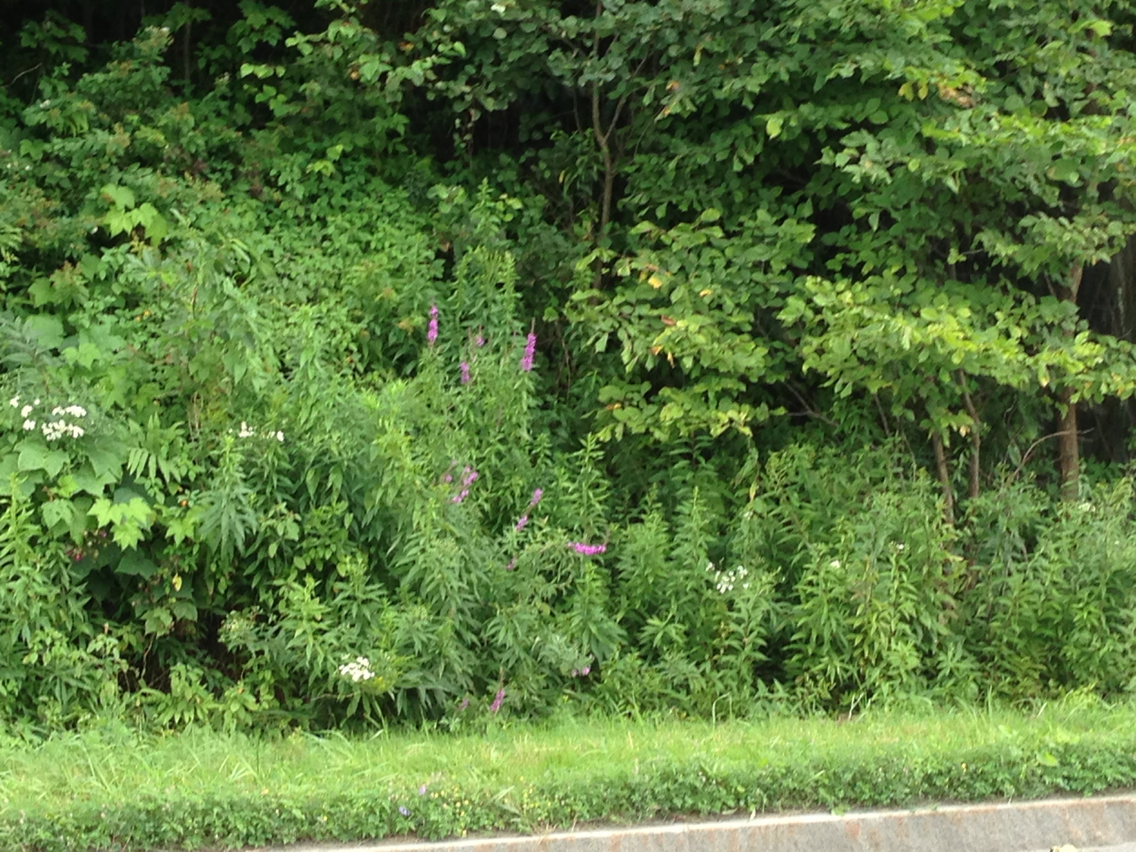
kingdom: Plantae
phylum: Tracheophyta
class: Magnoliopsida
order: Myrtales
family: Lythraceae
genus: Lythrum
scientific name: Lythrum salicaria
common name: Purple loosestrife
